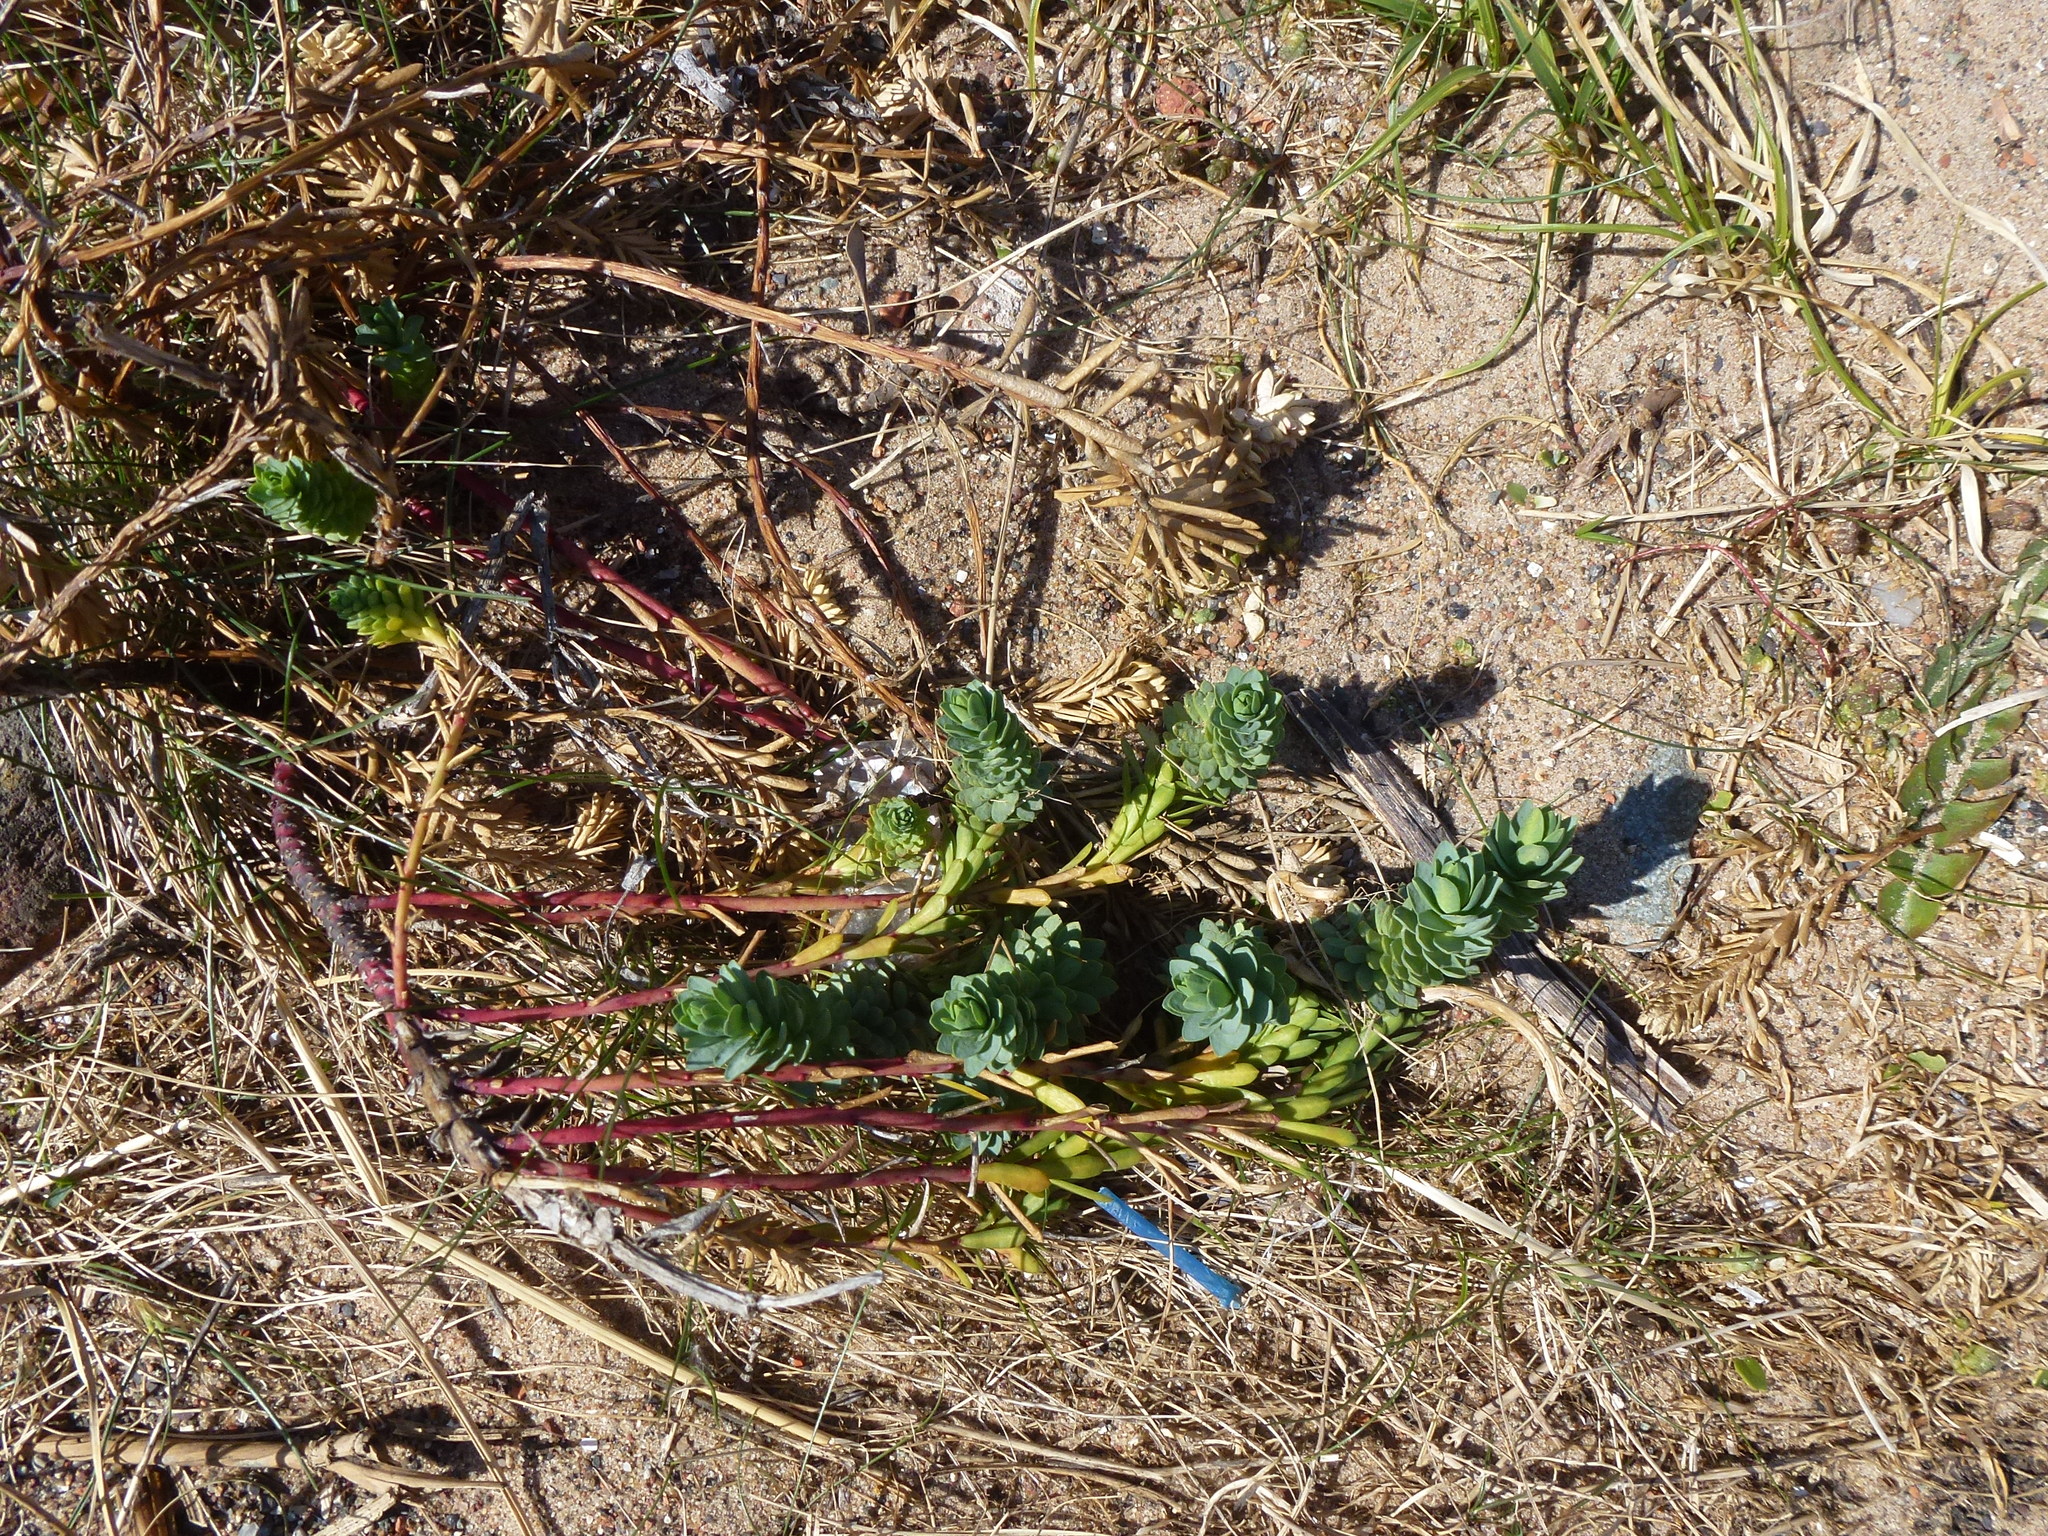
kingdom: Plantae
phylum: Tracheophyta
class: Magnoliopsida
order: Malpighiales
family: Euphorbiaceae
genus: Euphorbia
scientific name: Euphorbia paralias
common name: Sea spurge
